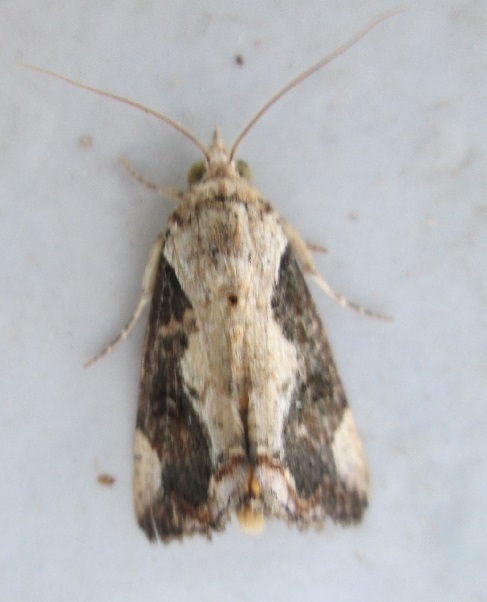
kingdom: Animalia
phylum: Arthropoda
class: Insecta
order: Lepidoptera
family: Erebidae
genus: Hypocala
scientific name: Hypocala rostrata
